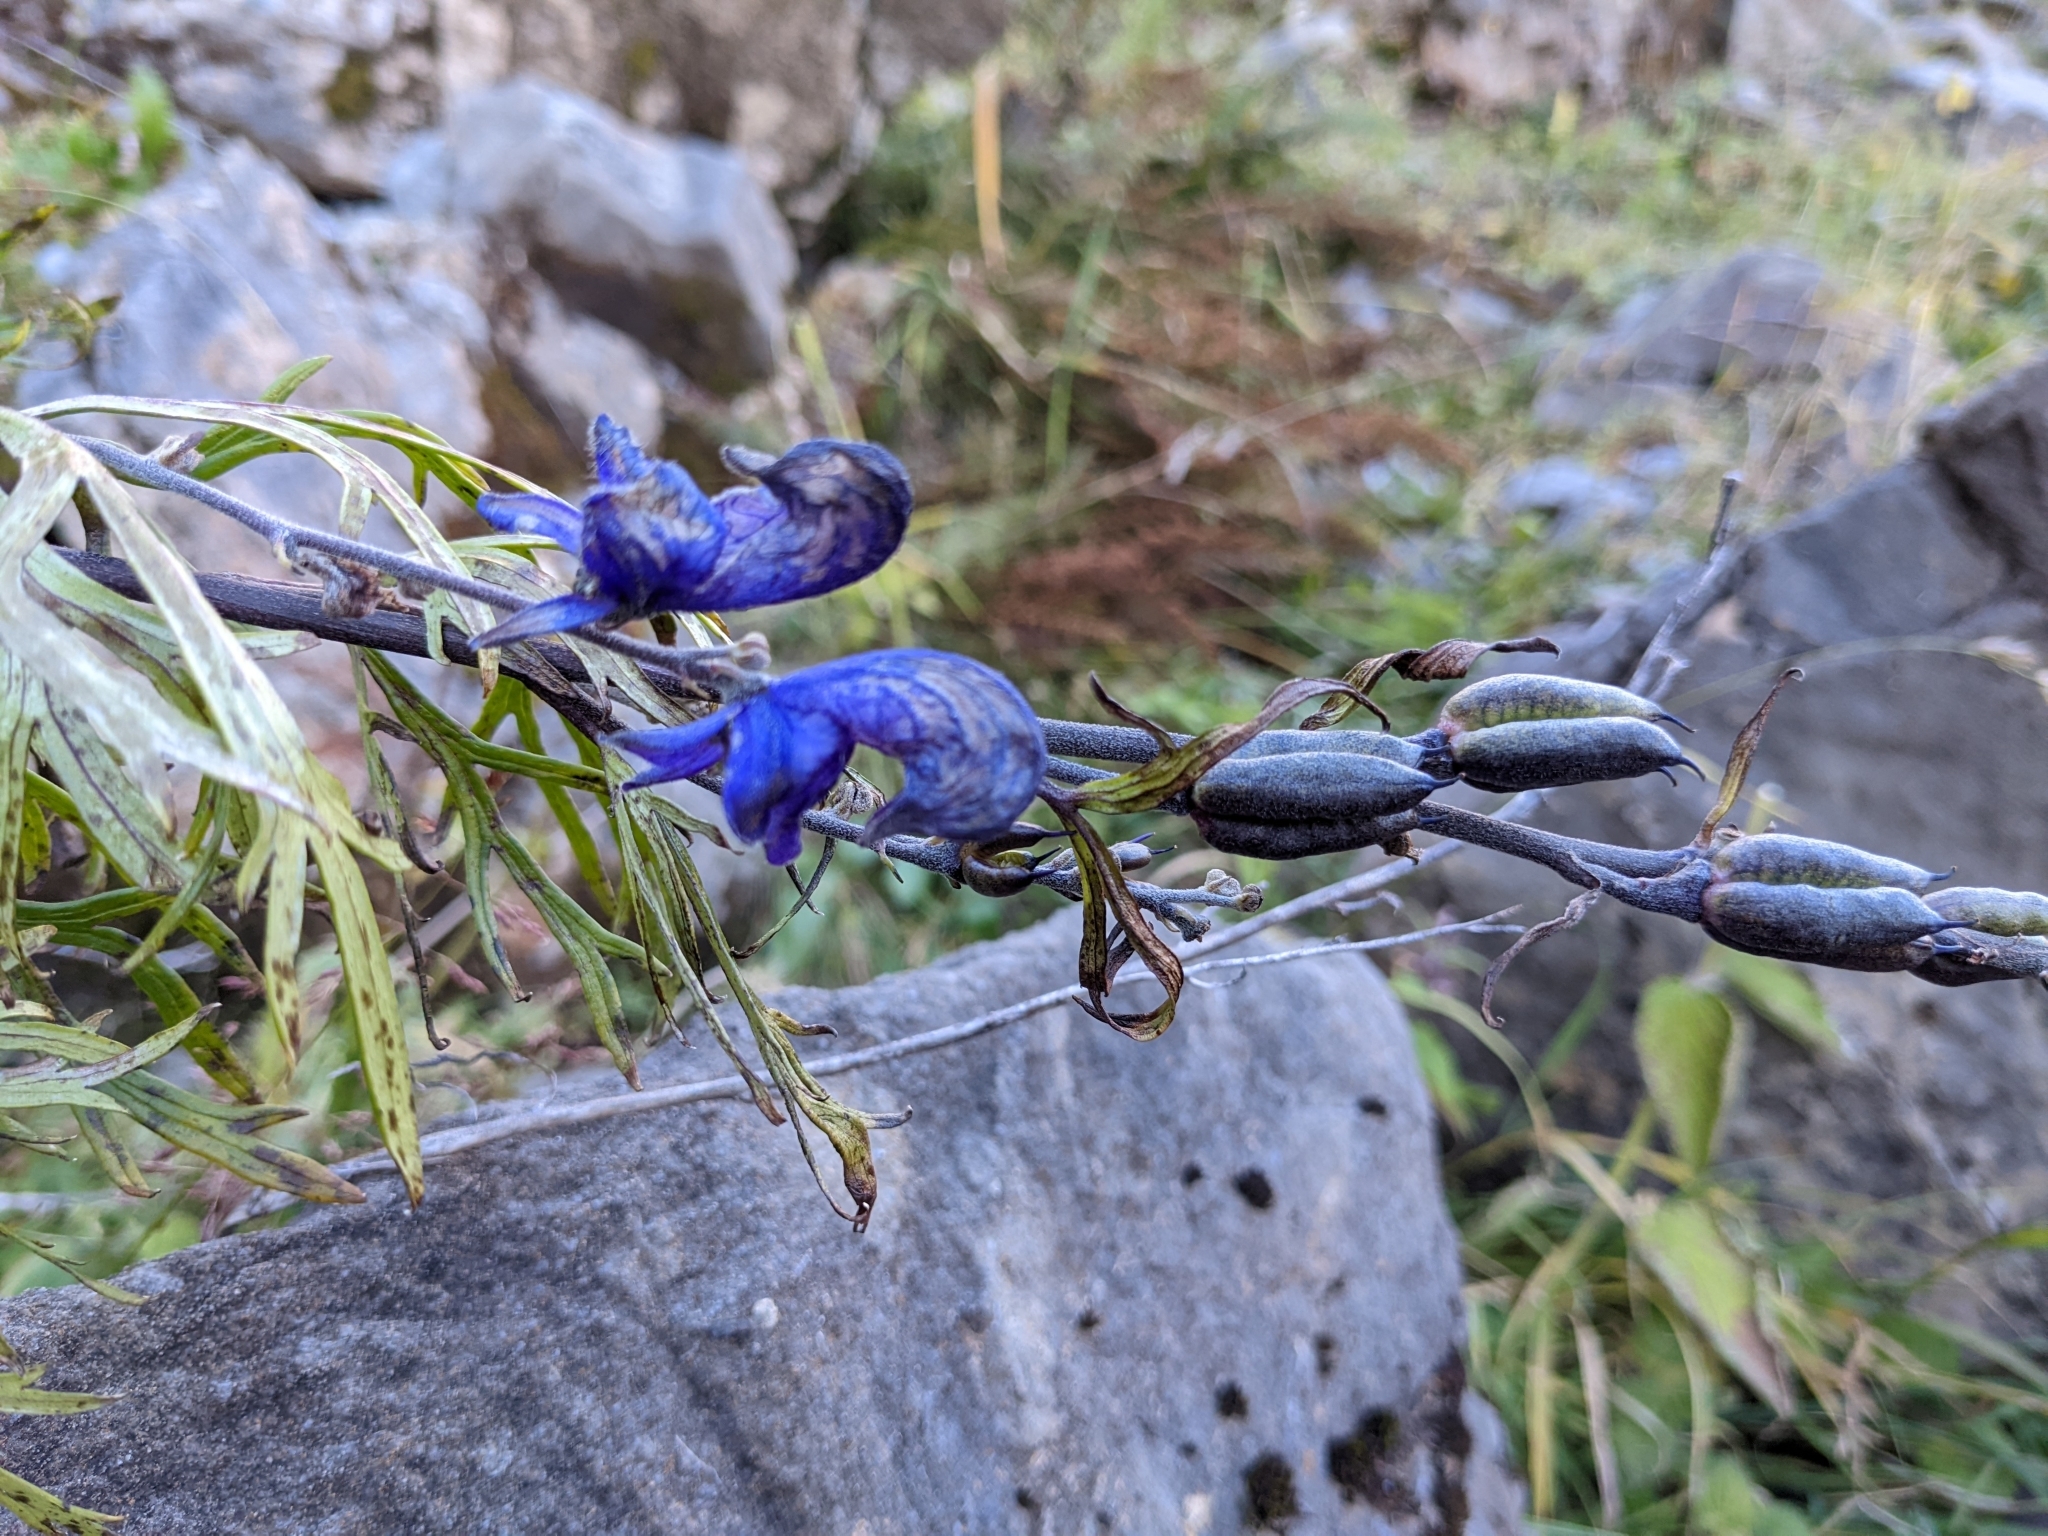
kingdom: Plantae
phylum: Tracheophyta
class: Magnoliopsida
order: Ranunculales
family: Ranunculaceae
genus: Aconitum
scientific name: Aconitum napellus
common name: Garden monkshood
